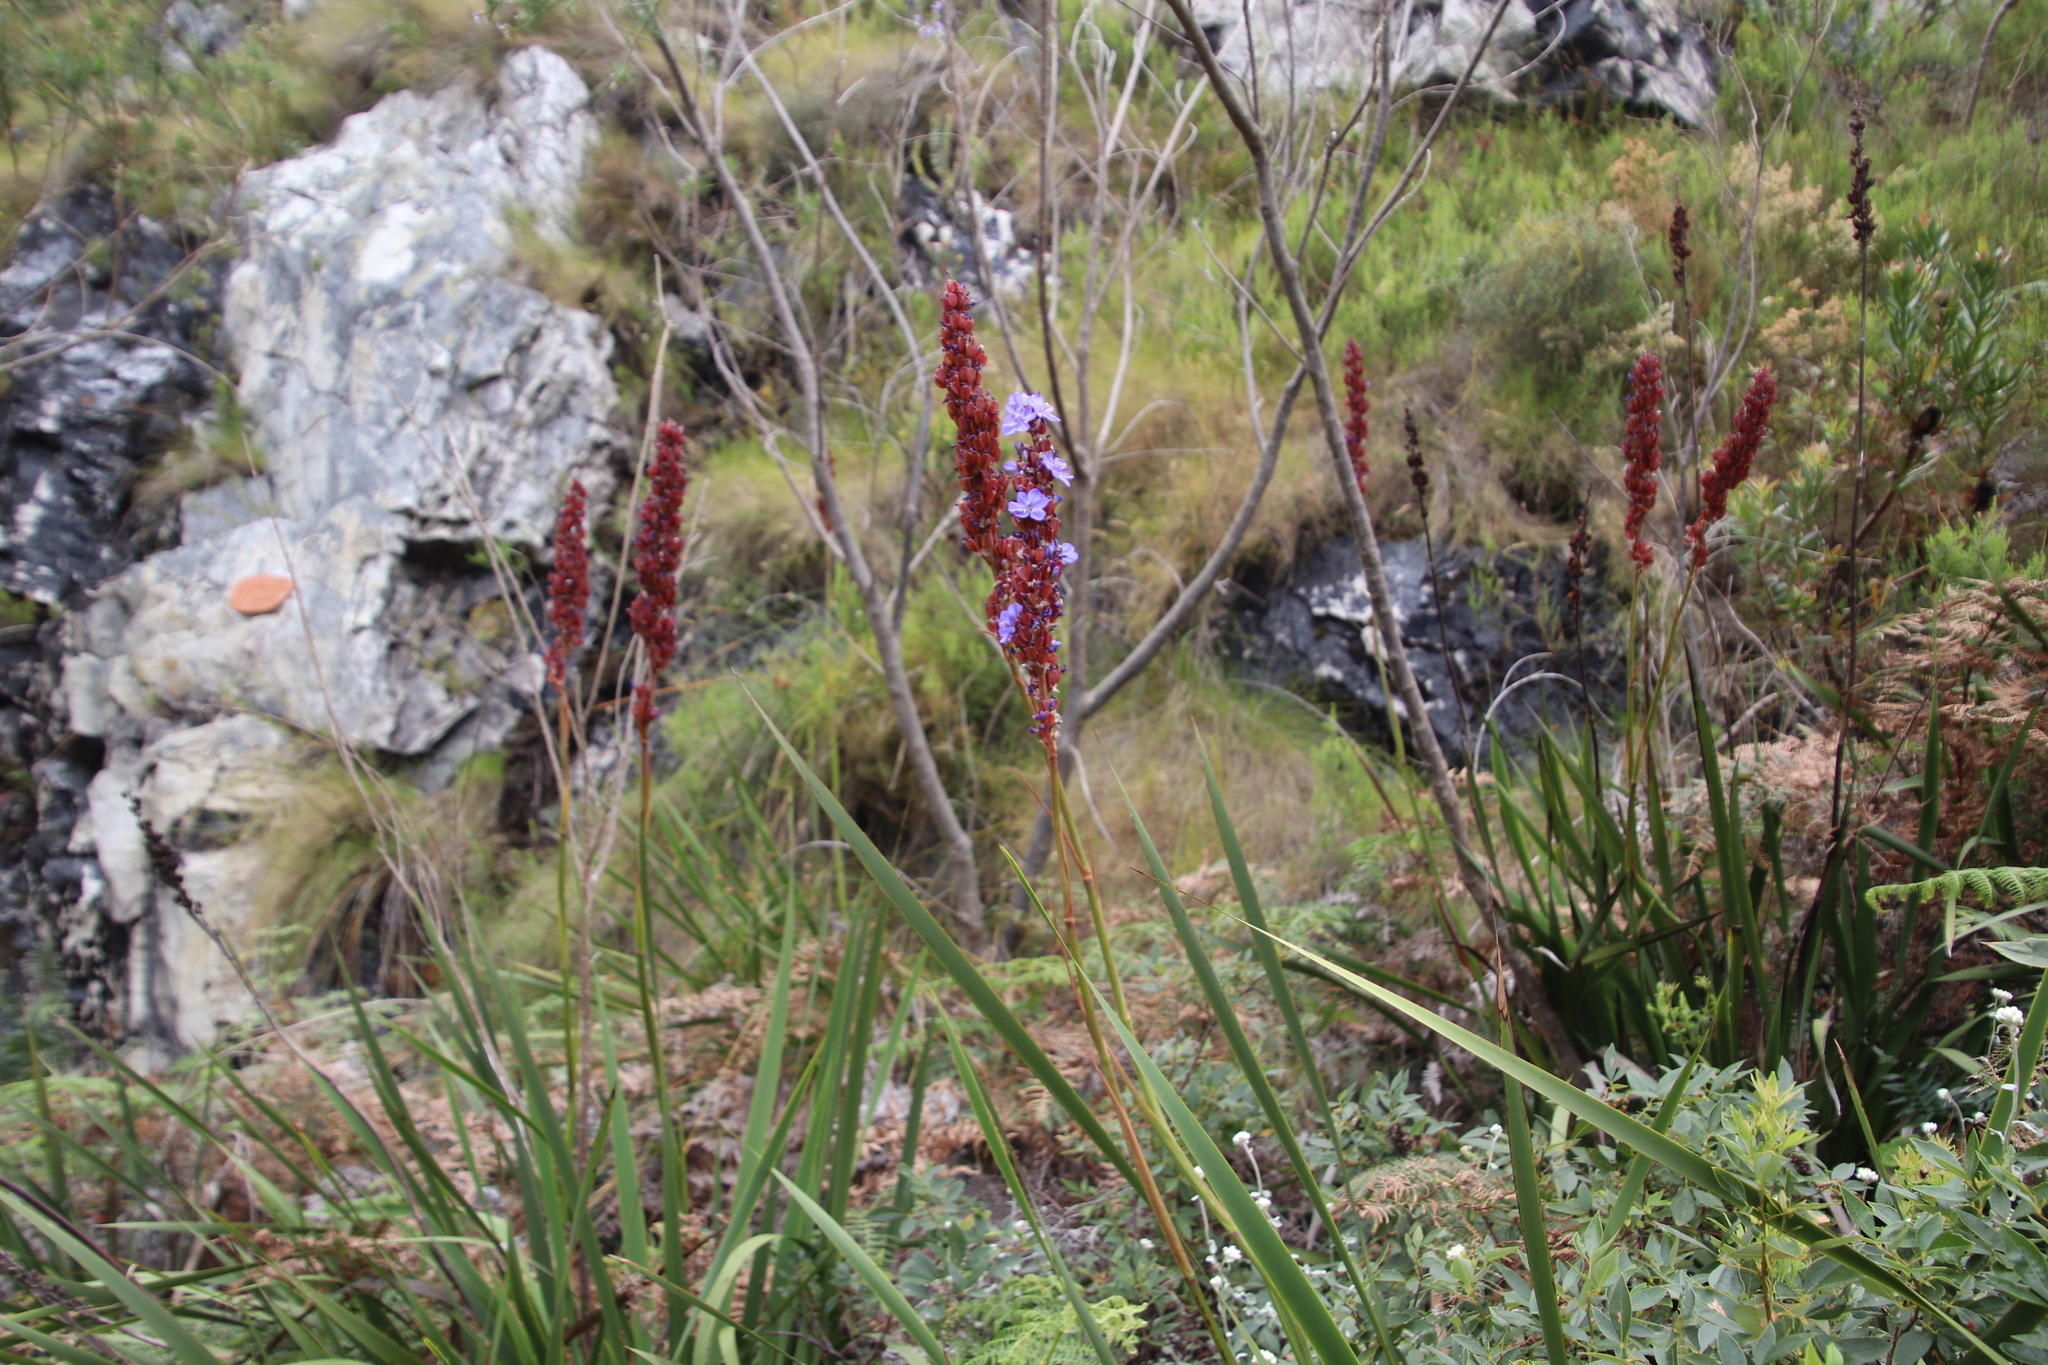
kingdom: Plantae
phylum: Tracheophyta
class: Liliopsida
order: Asparagales
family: Iridaceae
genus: Aristea
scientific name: Aristea capitata
